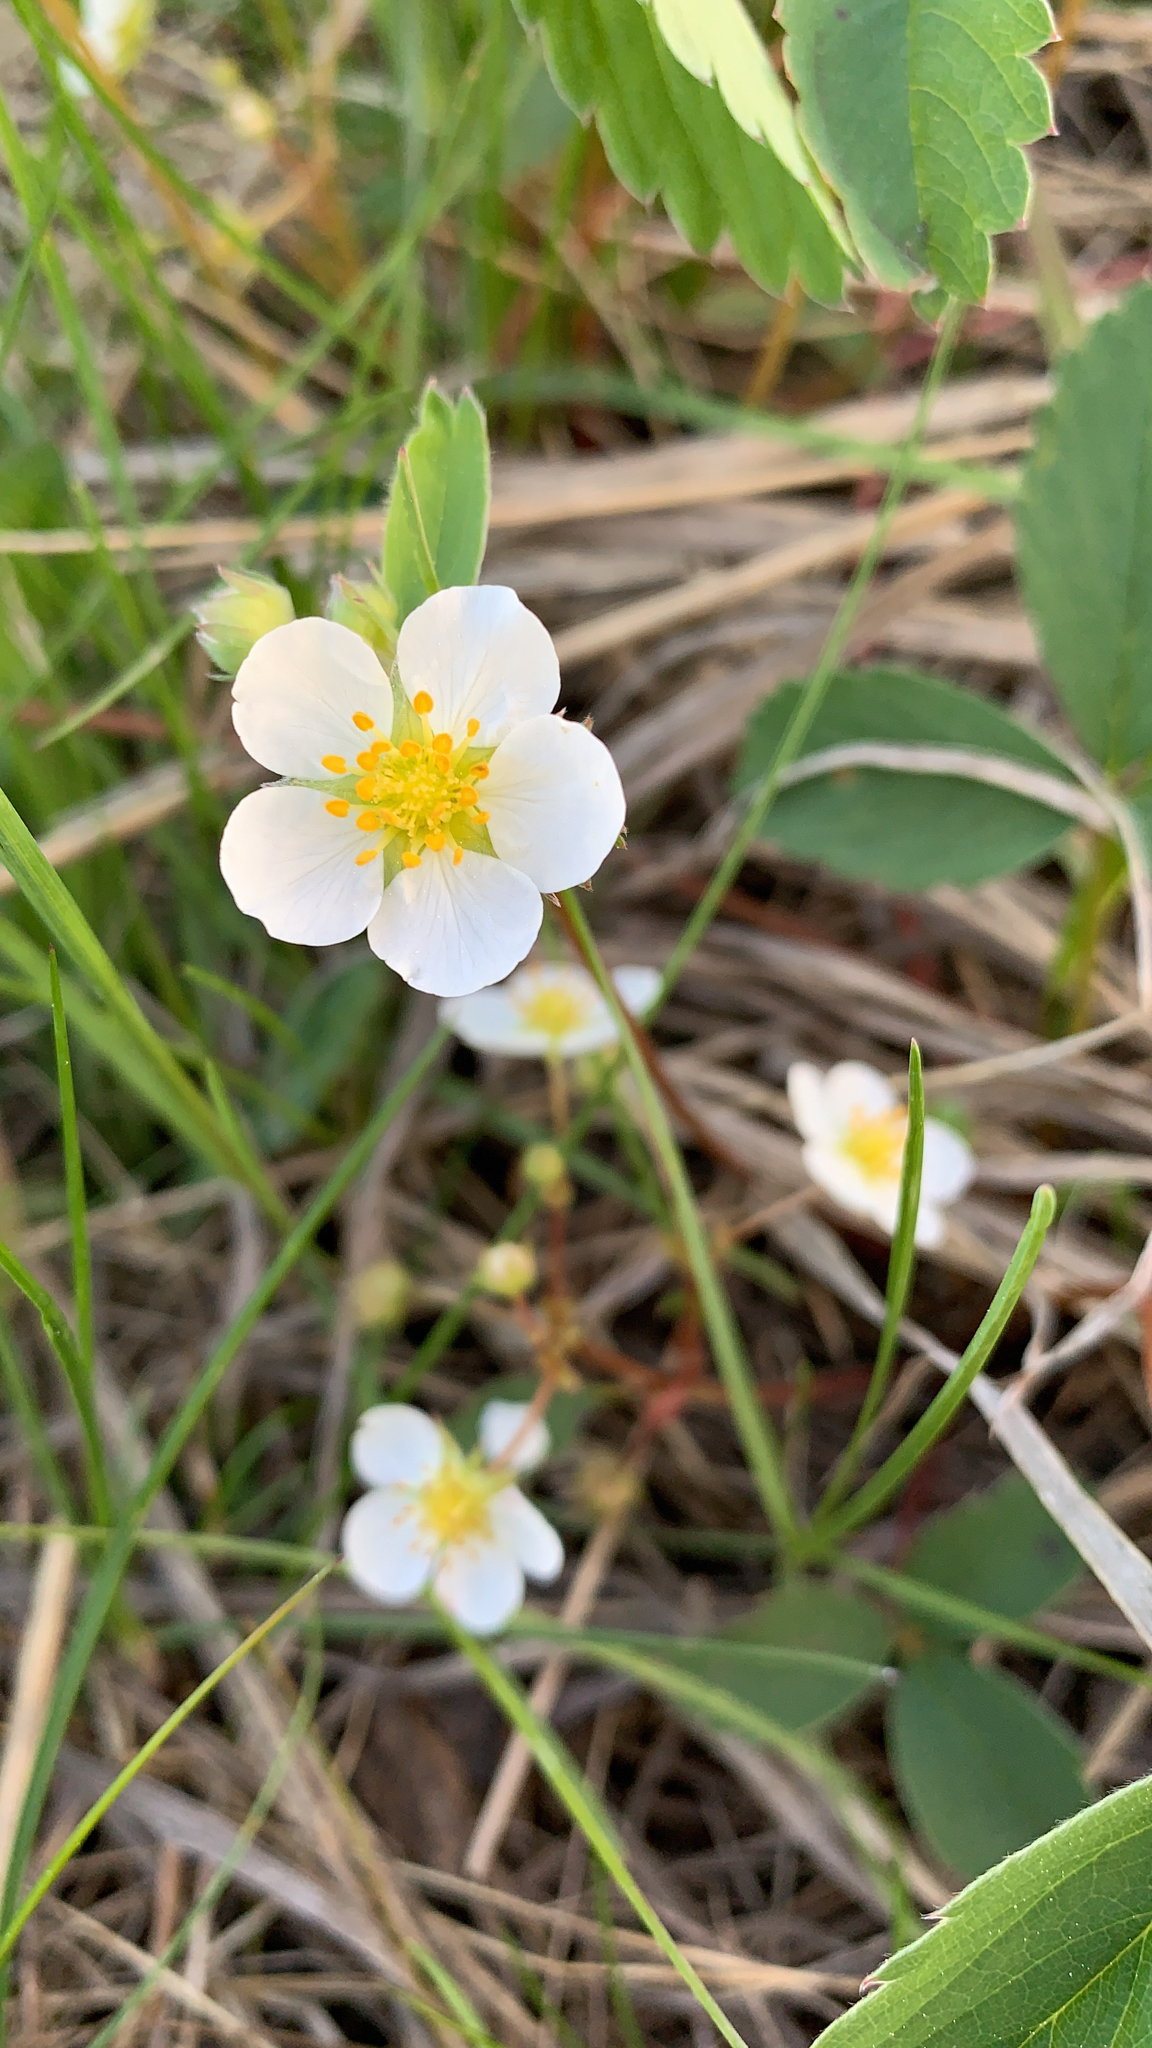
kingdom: Plantae
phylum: Tracheophyta
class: Magnoliopsida
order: Rosales
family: Rosaceae
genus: Fragaria
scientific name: Fragaria virginiana
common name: Thickleaved wild strawberry
